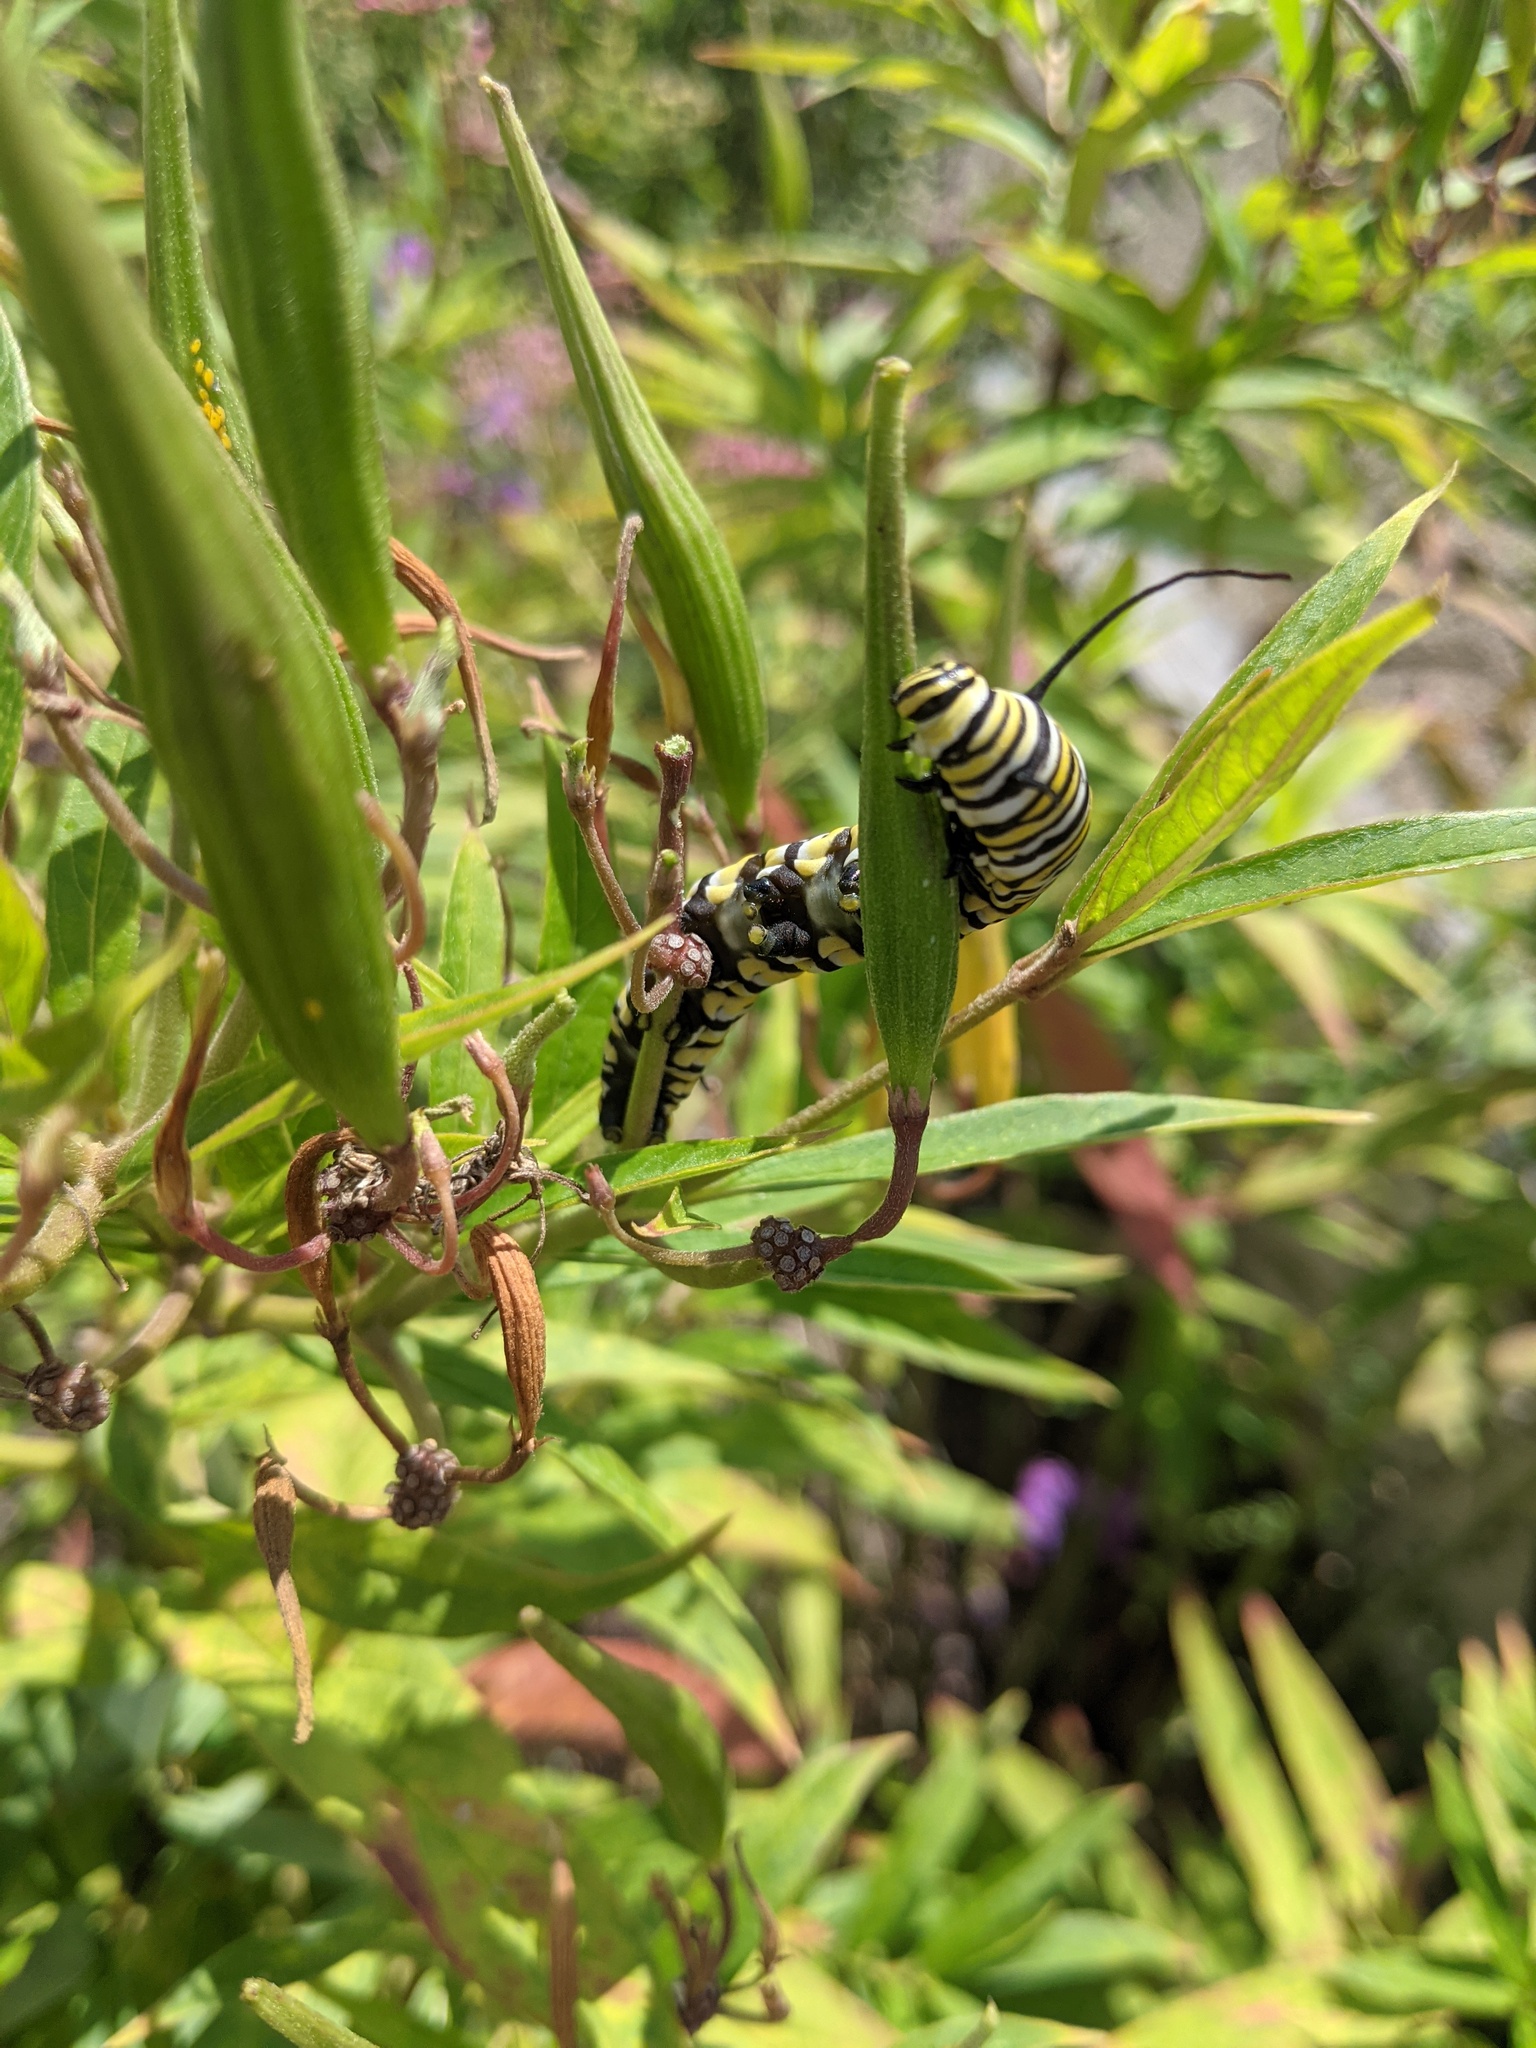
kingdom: Animalia
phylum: Arthropoda
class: Insecta
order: Lepidoptera
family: Nymphalidae
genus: Danaus
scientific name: Danaus plexippus
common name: Monarch
